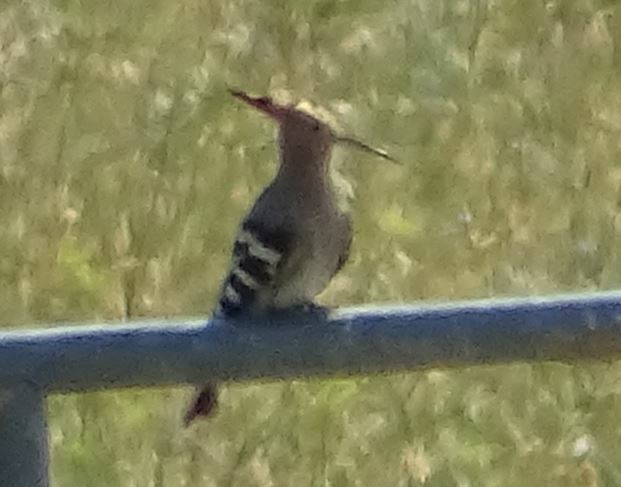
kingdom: Animalia
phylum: Chordata
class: Aves
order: Bucerotiformes
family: Upupidae
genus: Upupa
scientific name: Upupa epops
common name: Eurasian hoopoe
